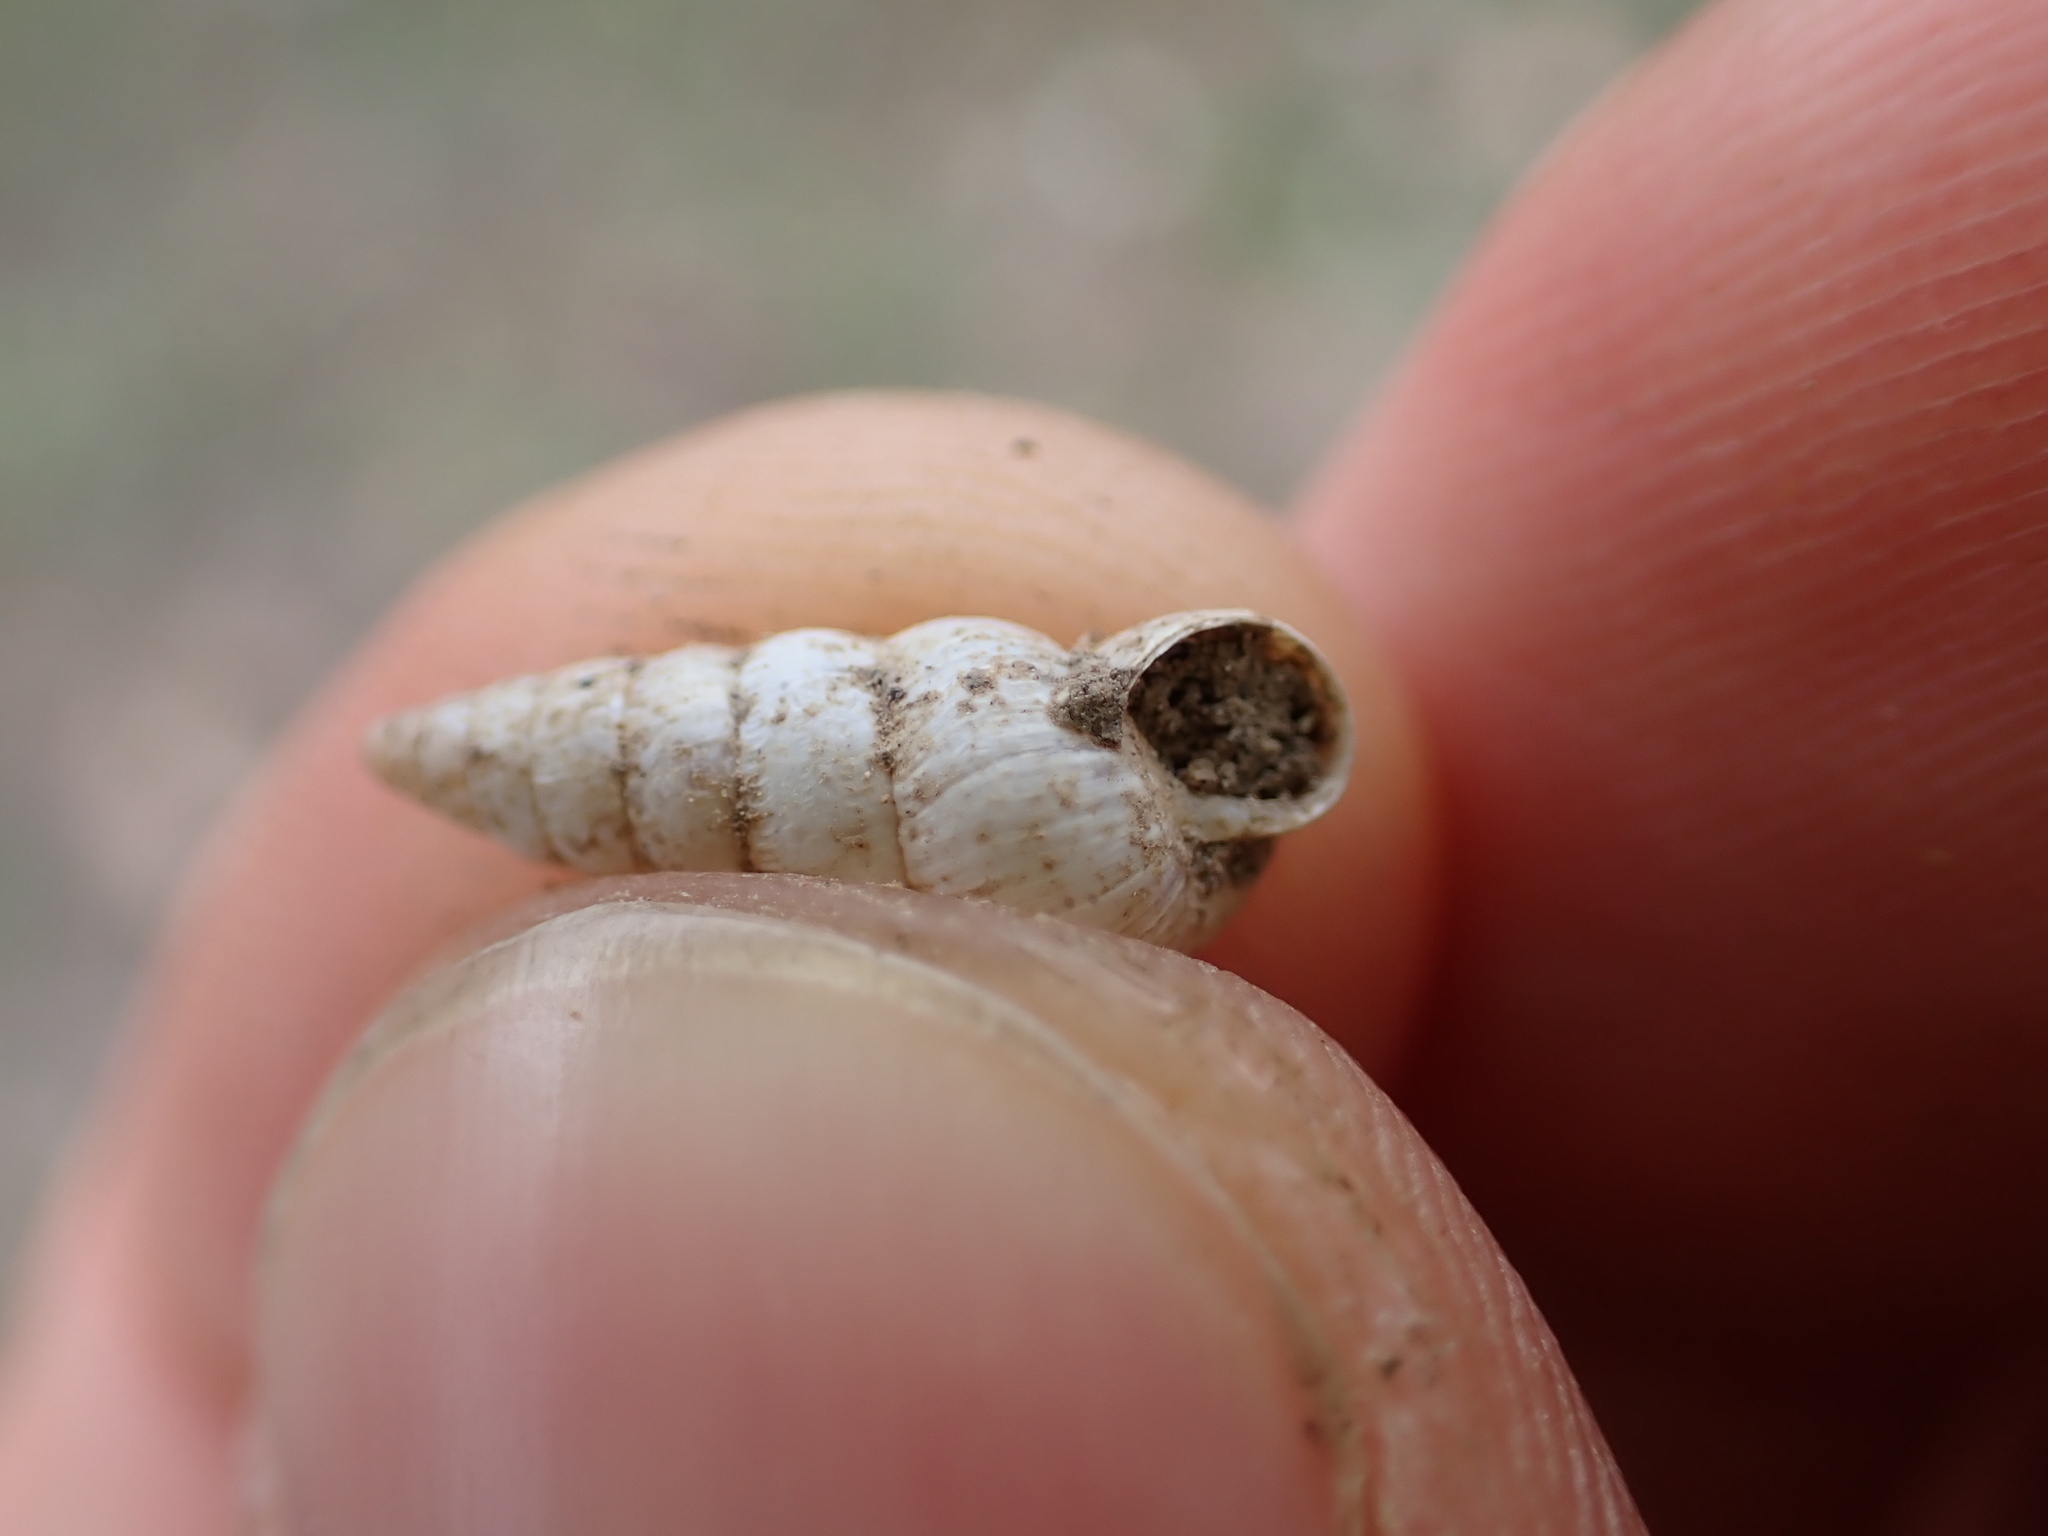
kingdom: Animalia
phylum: Mollusca
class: Gastropoda
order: Stylommatophora
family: Geomitridae
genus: Cochlicella
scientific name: Cochlicella acuta
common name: Pointed snail
